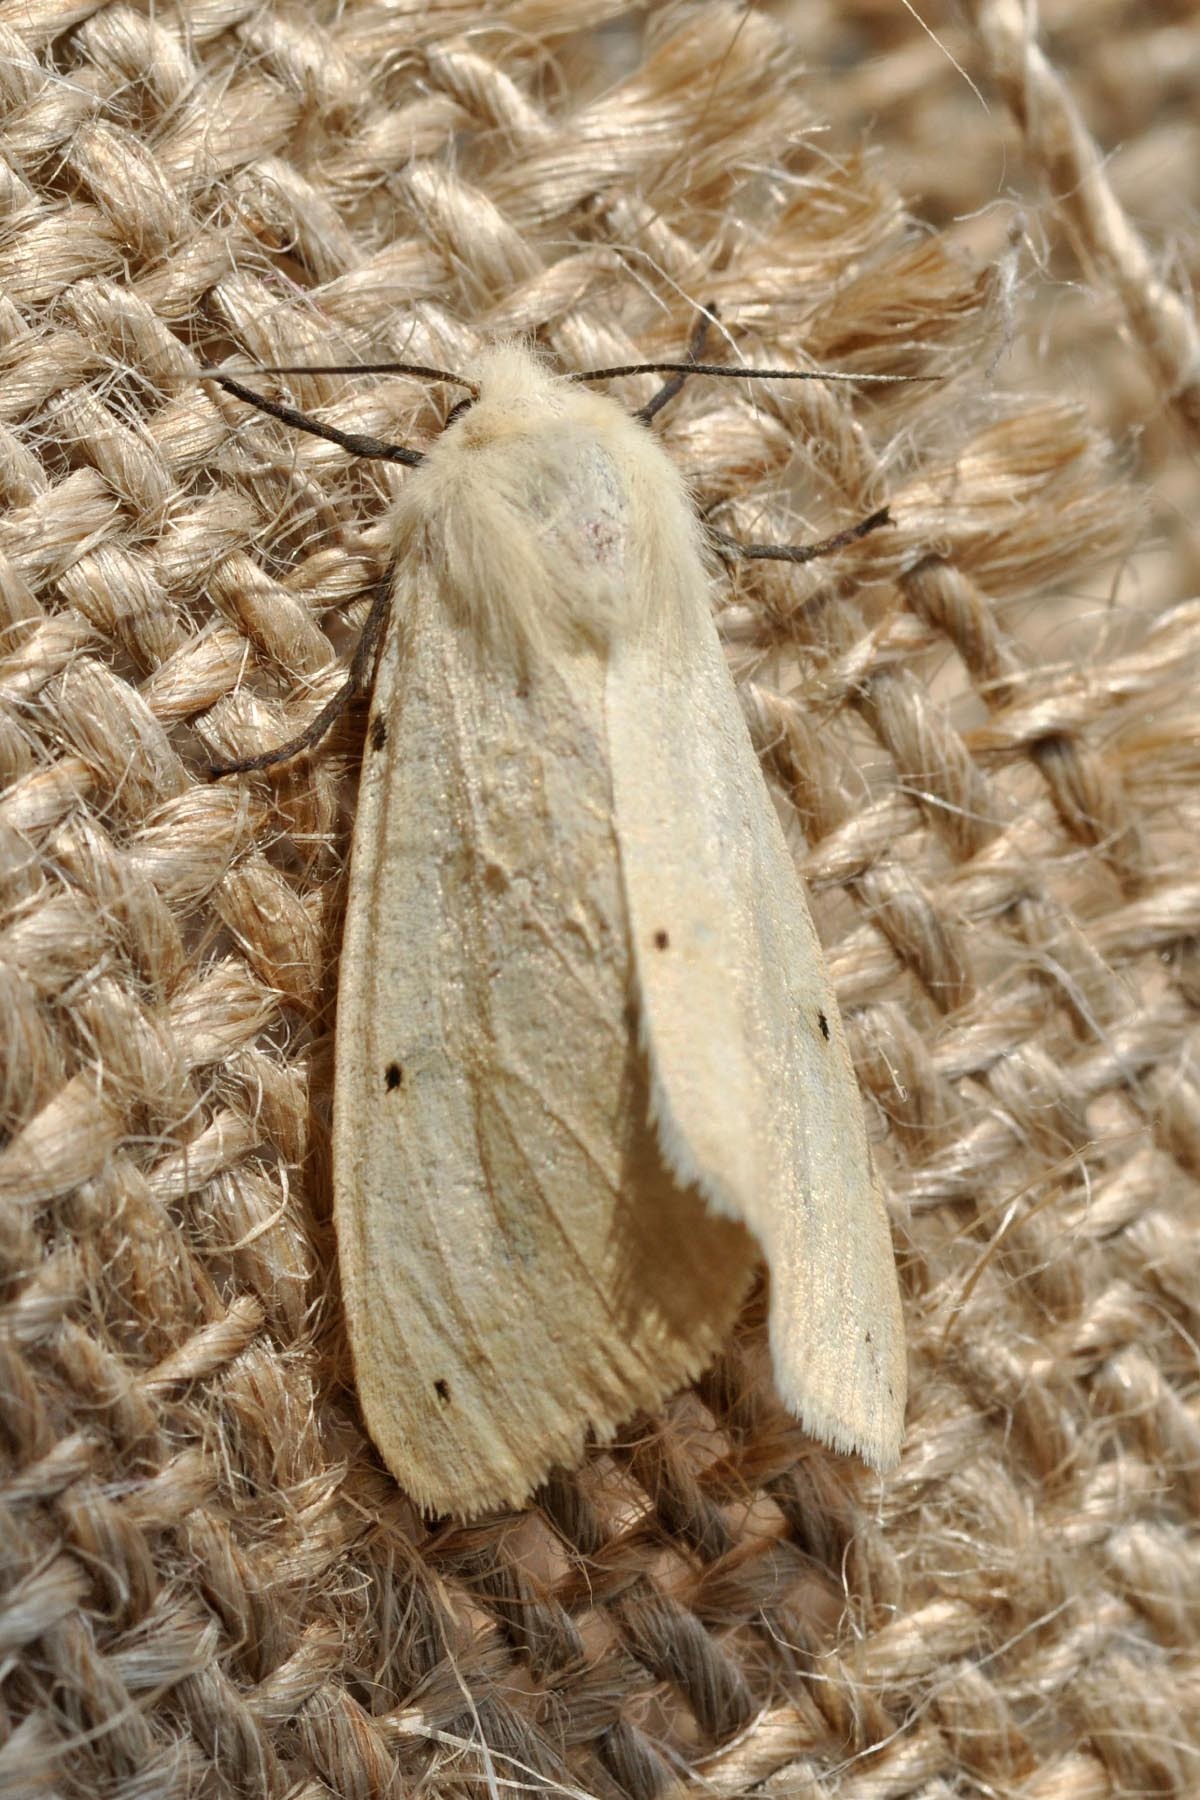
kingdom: Animalia
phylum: Arthropoda
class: Insecta
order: Lepidoptera
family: Erebidae
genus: Spilosoma
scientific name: Spilosoma urticae
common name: Water ermine
